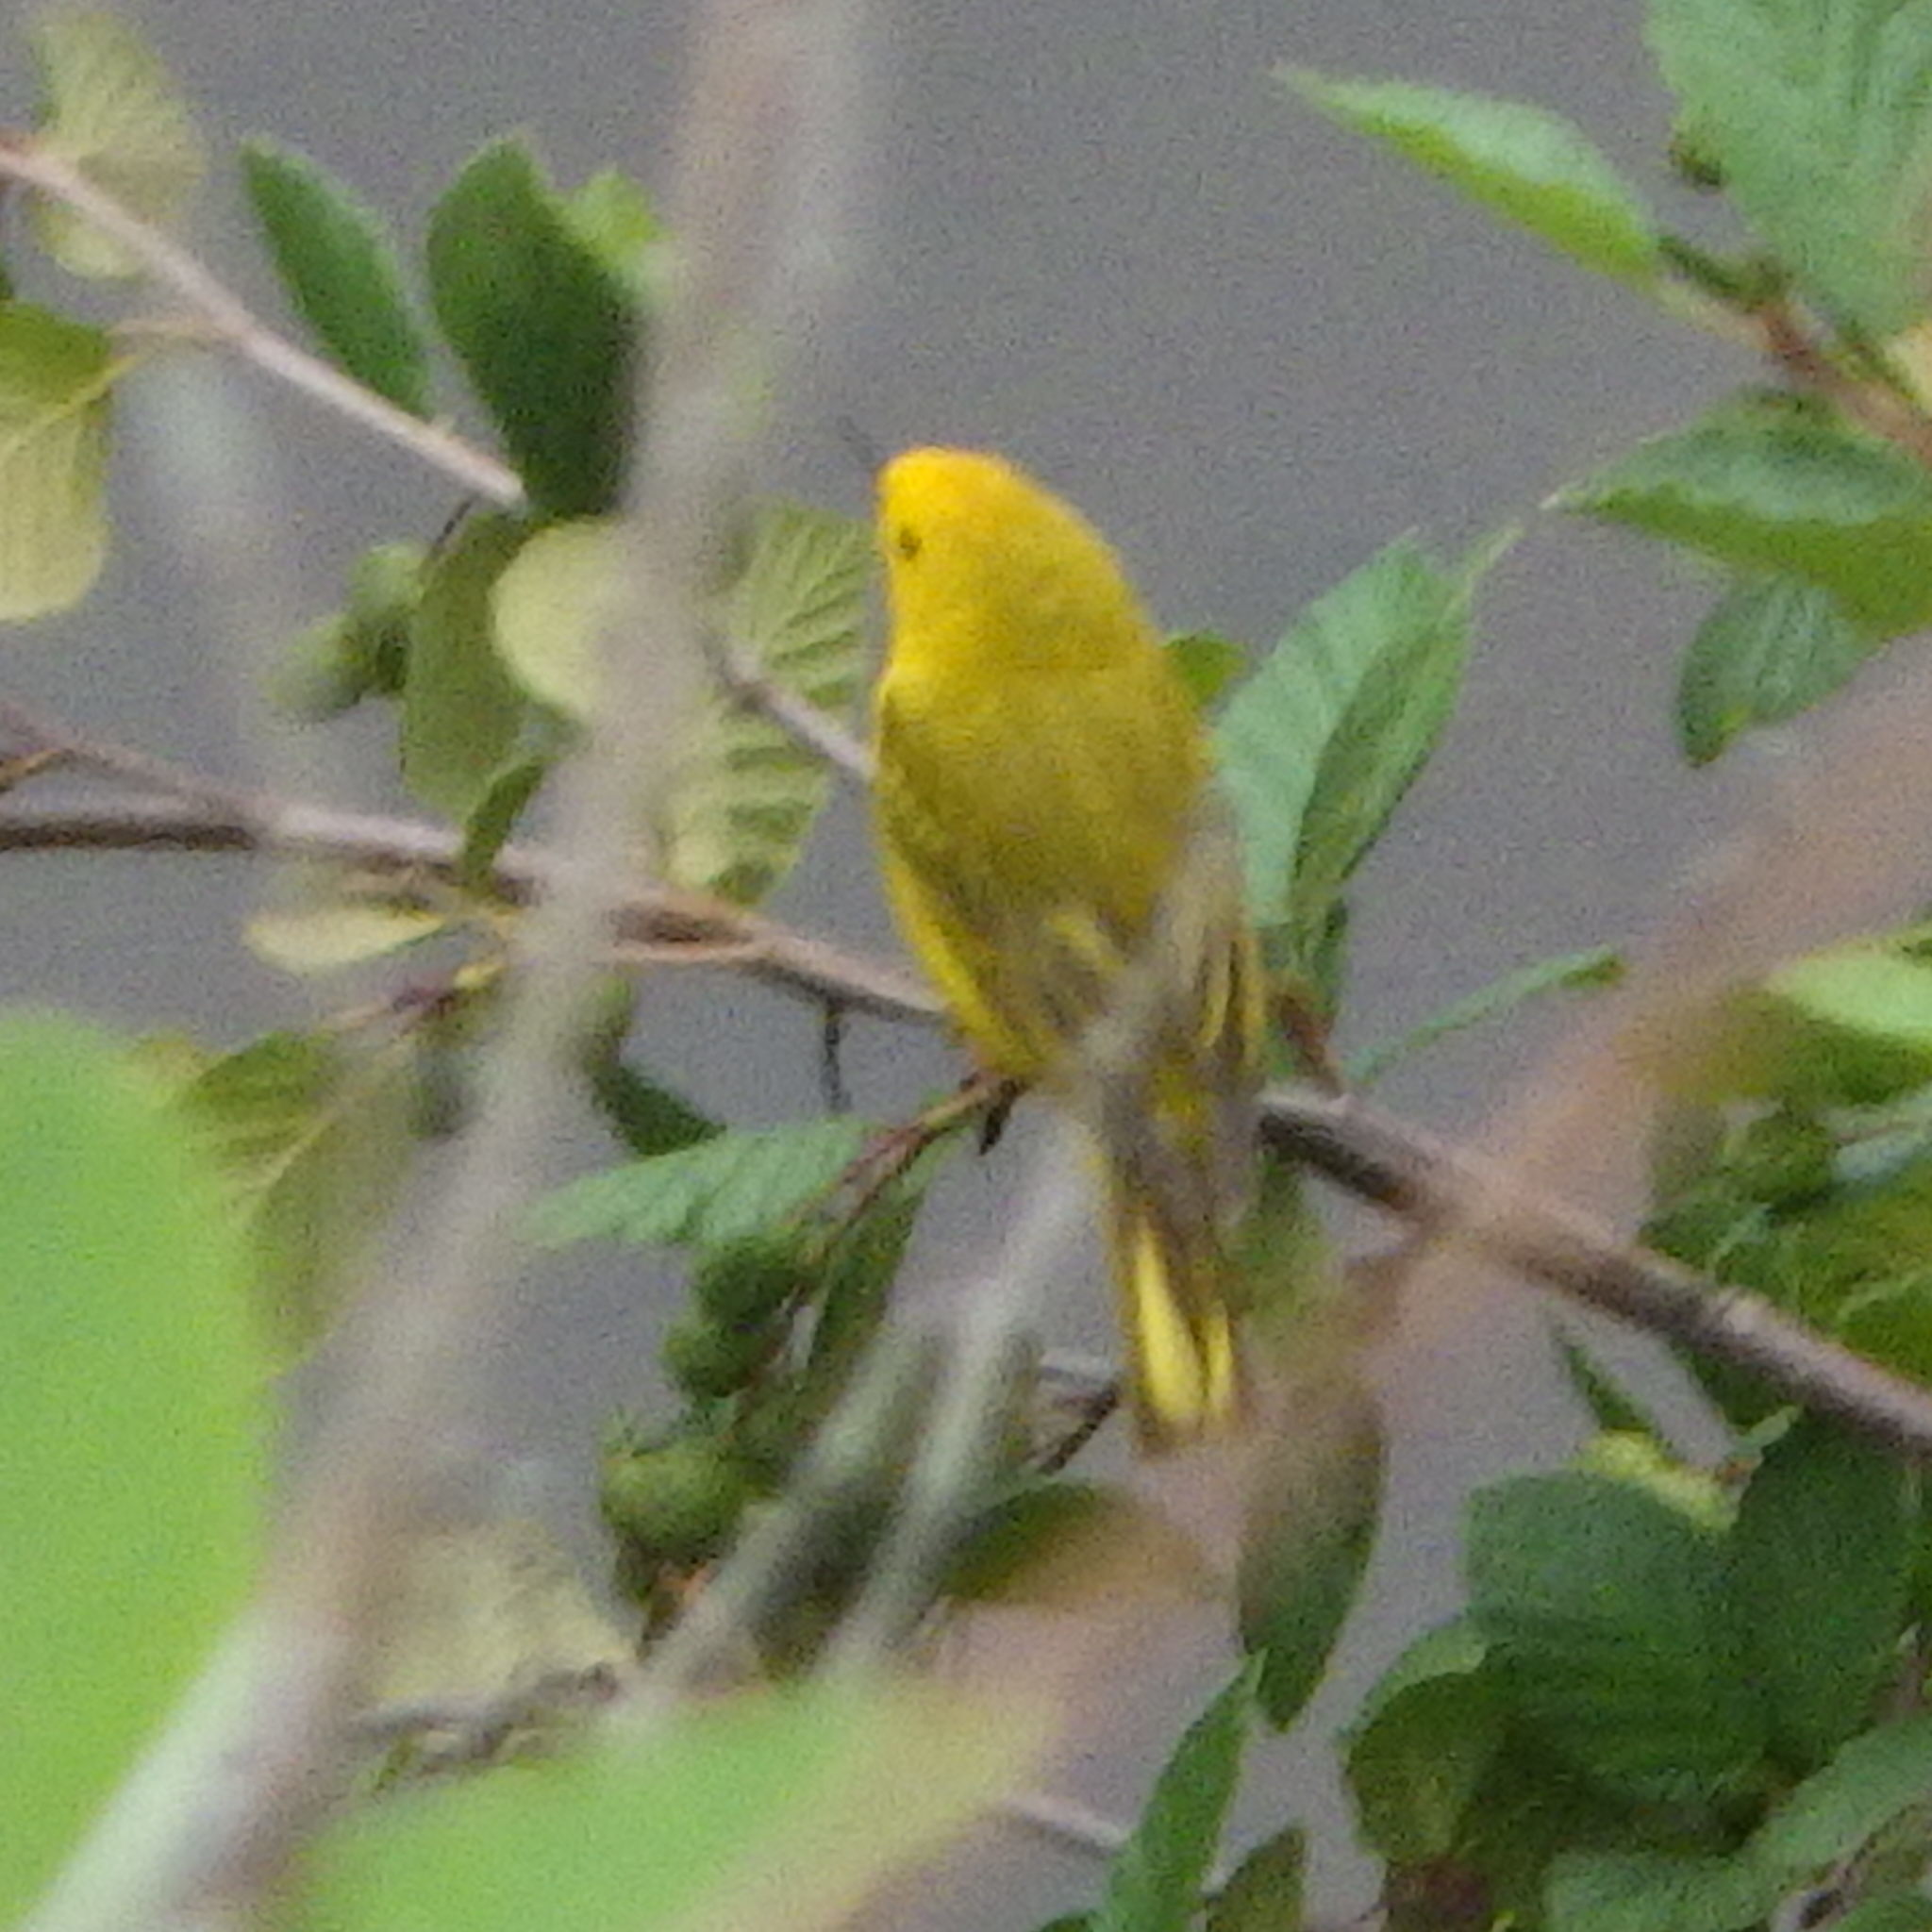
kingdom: Animalia
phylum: Chordata
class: Aves
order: Passeriformes
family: Parulidae
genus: Setophaga
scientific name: Setophaga petechia
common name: Yellow warbler
